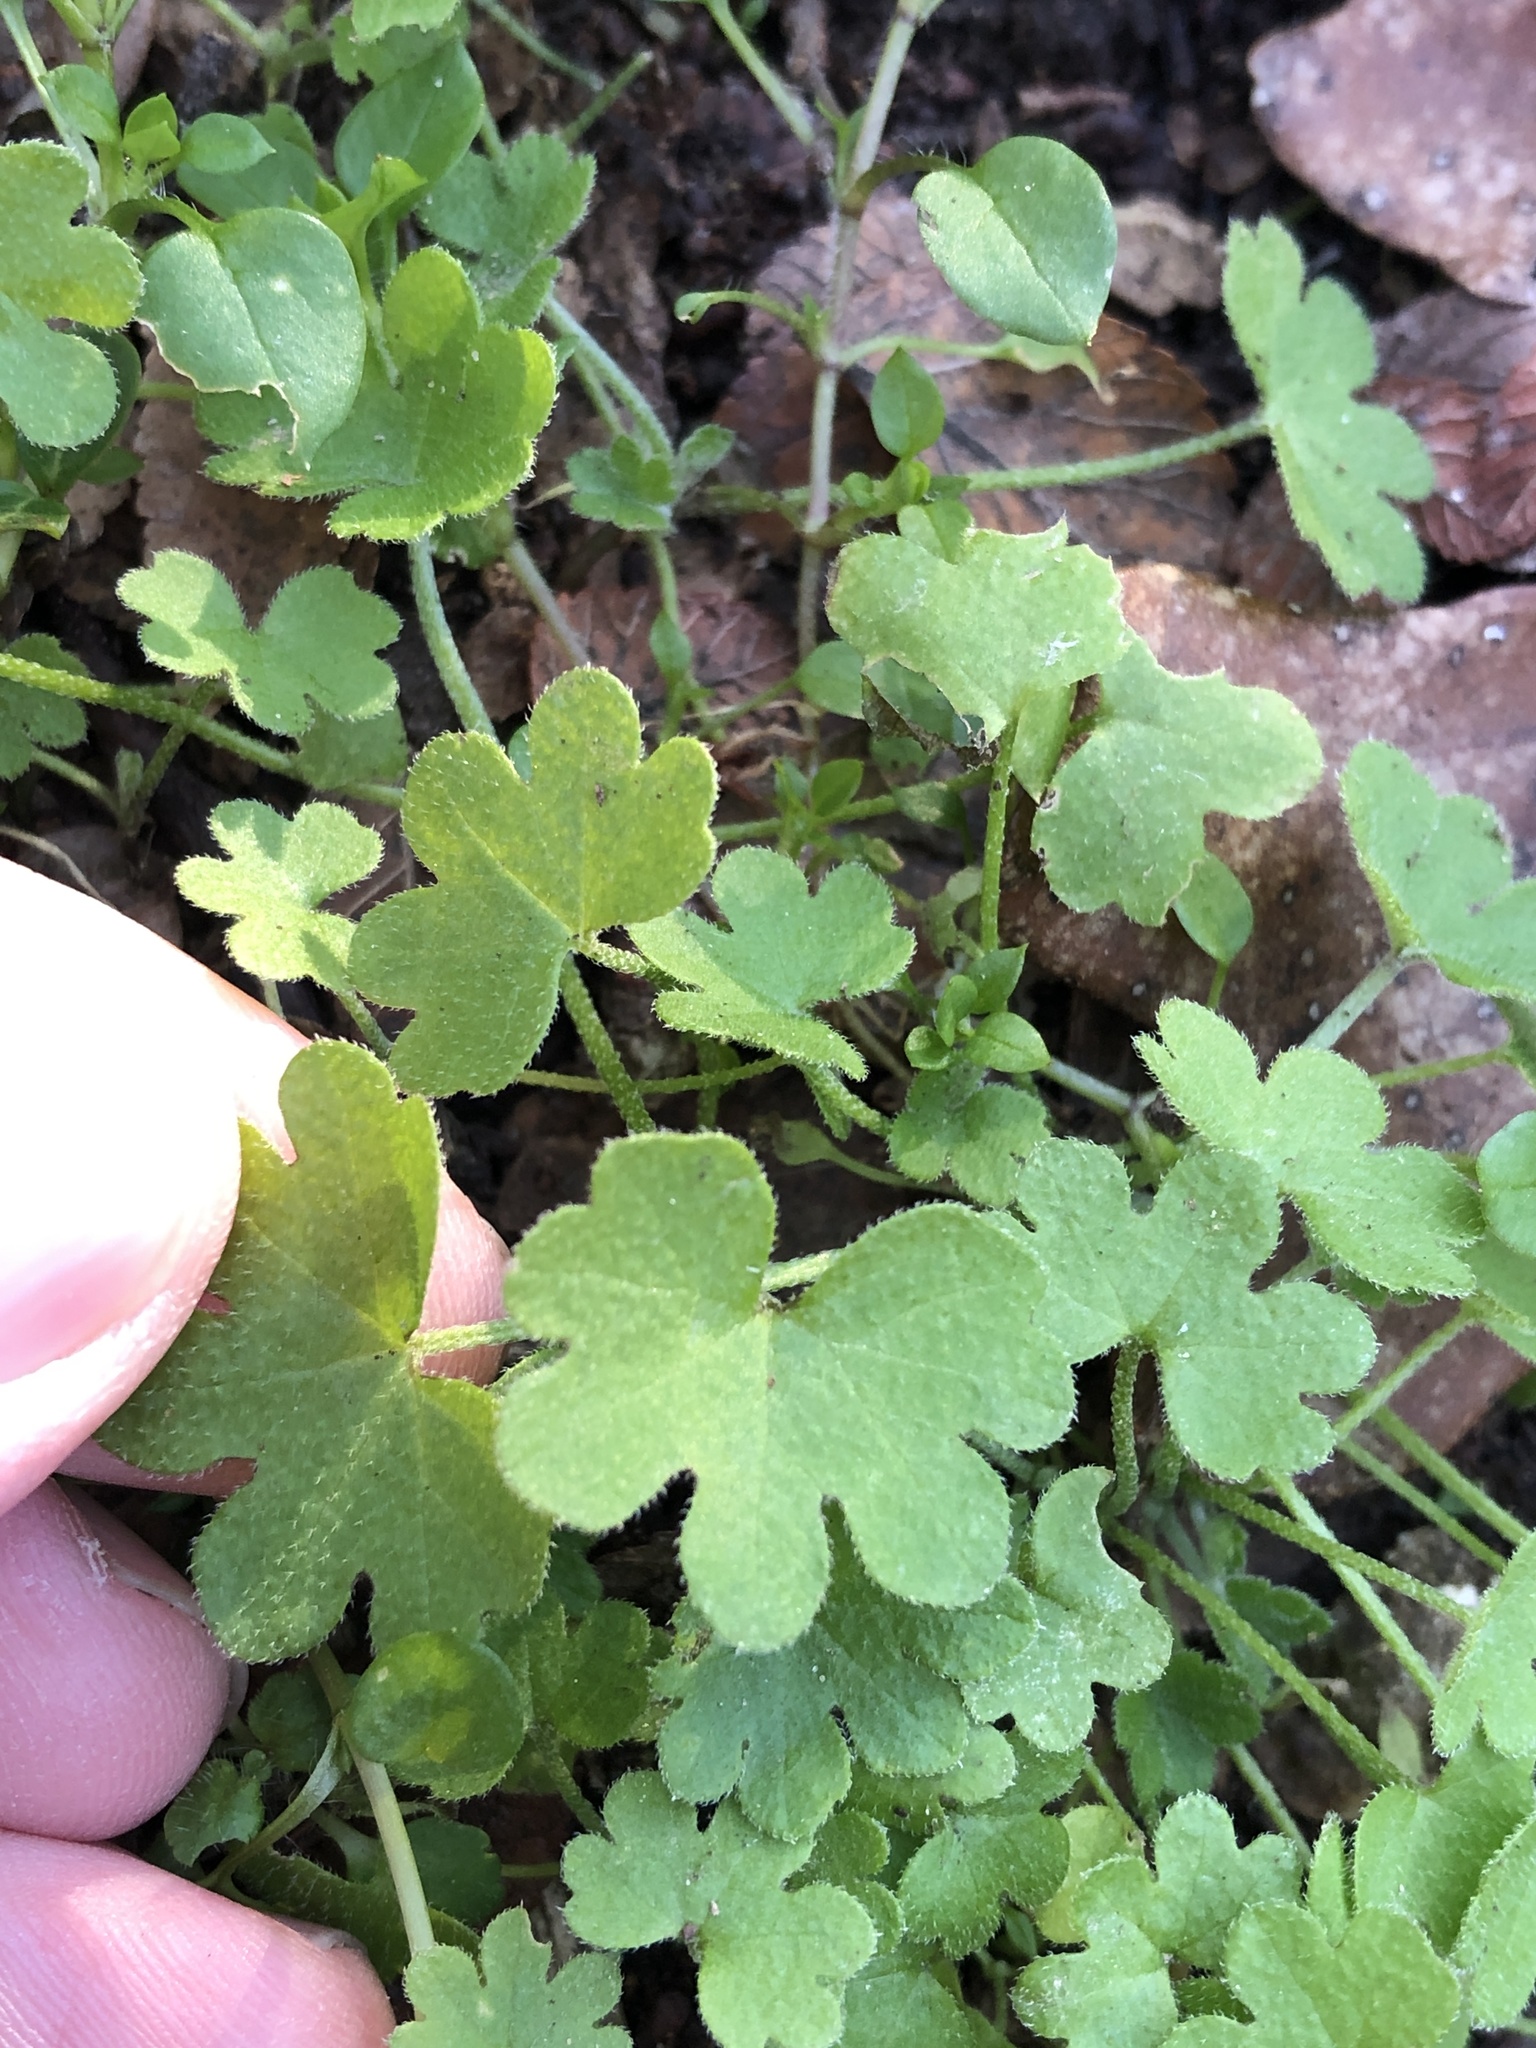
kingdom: Plantae
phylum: Tracheophyta
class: Magnoliopsida
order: Apiales
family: Apiaceae
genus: Bowlesia
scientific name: Bowlesia incana
